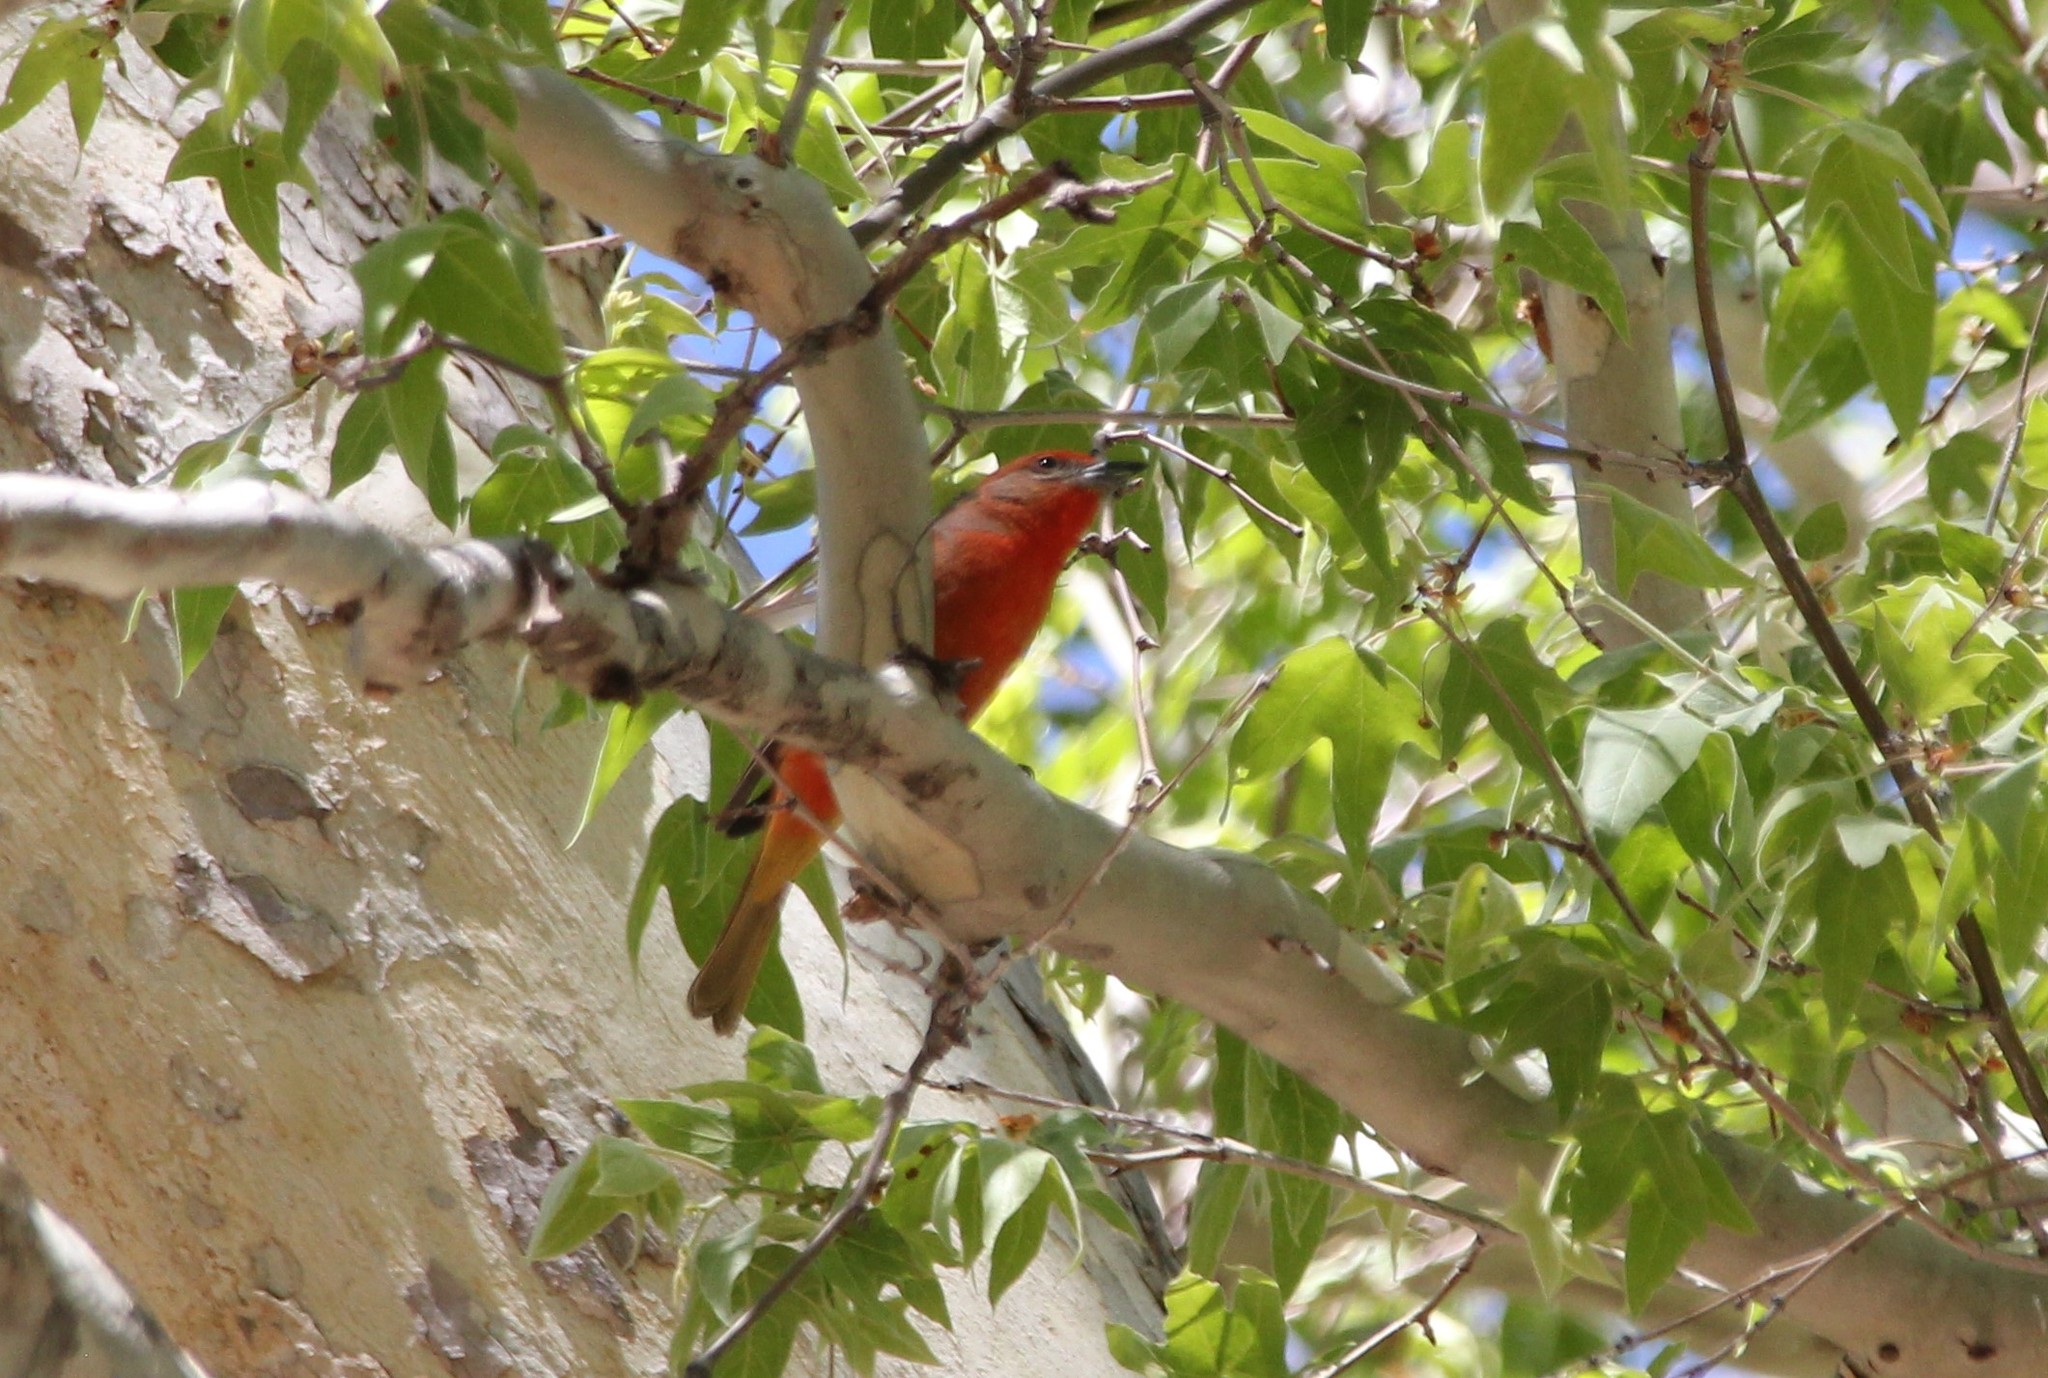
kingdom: Animalia
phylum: Chordata
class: Aves
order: Passeriformes
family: Cardinalidae
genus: Piranga
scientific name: Piranga flava
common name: Red tanager
